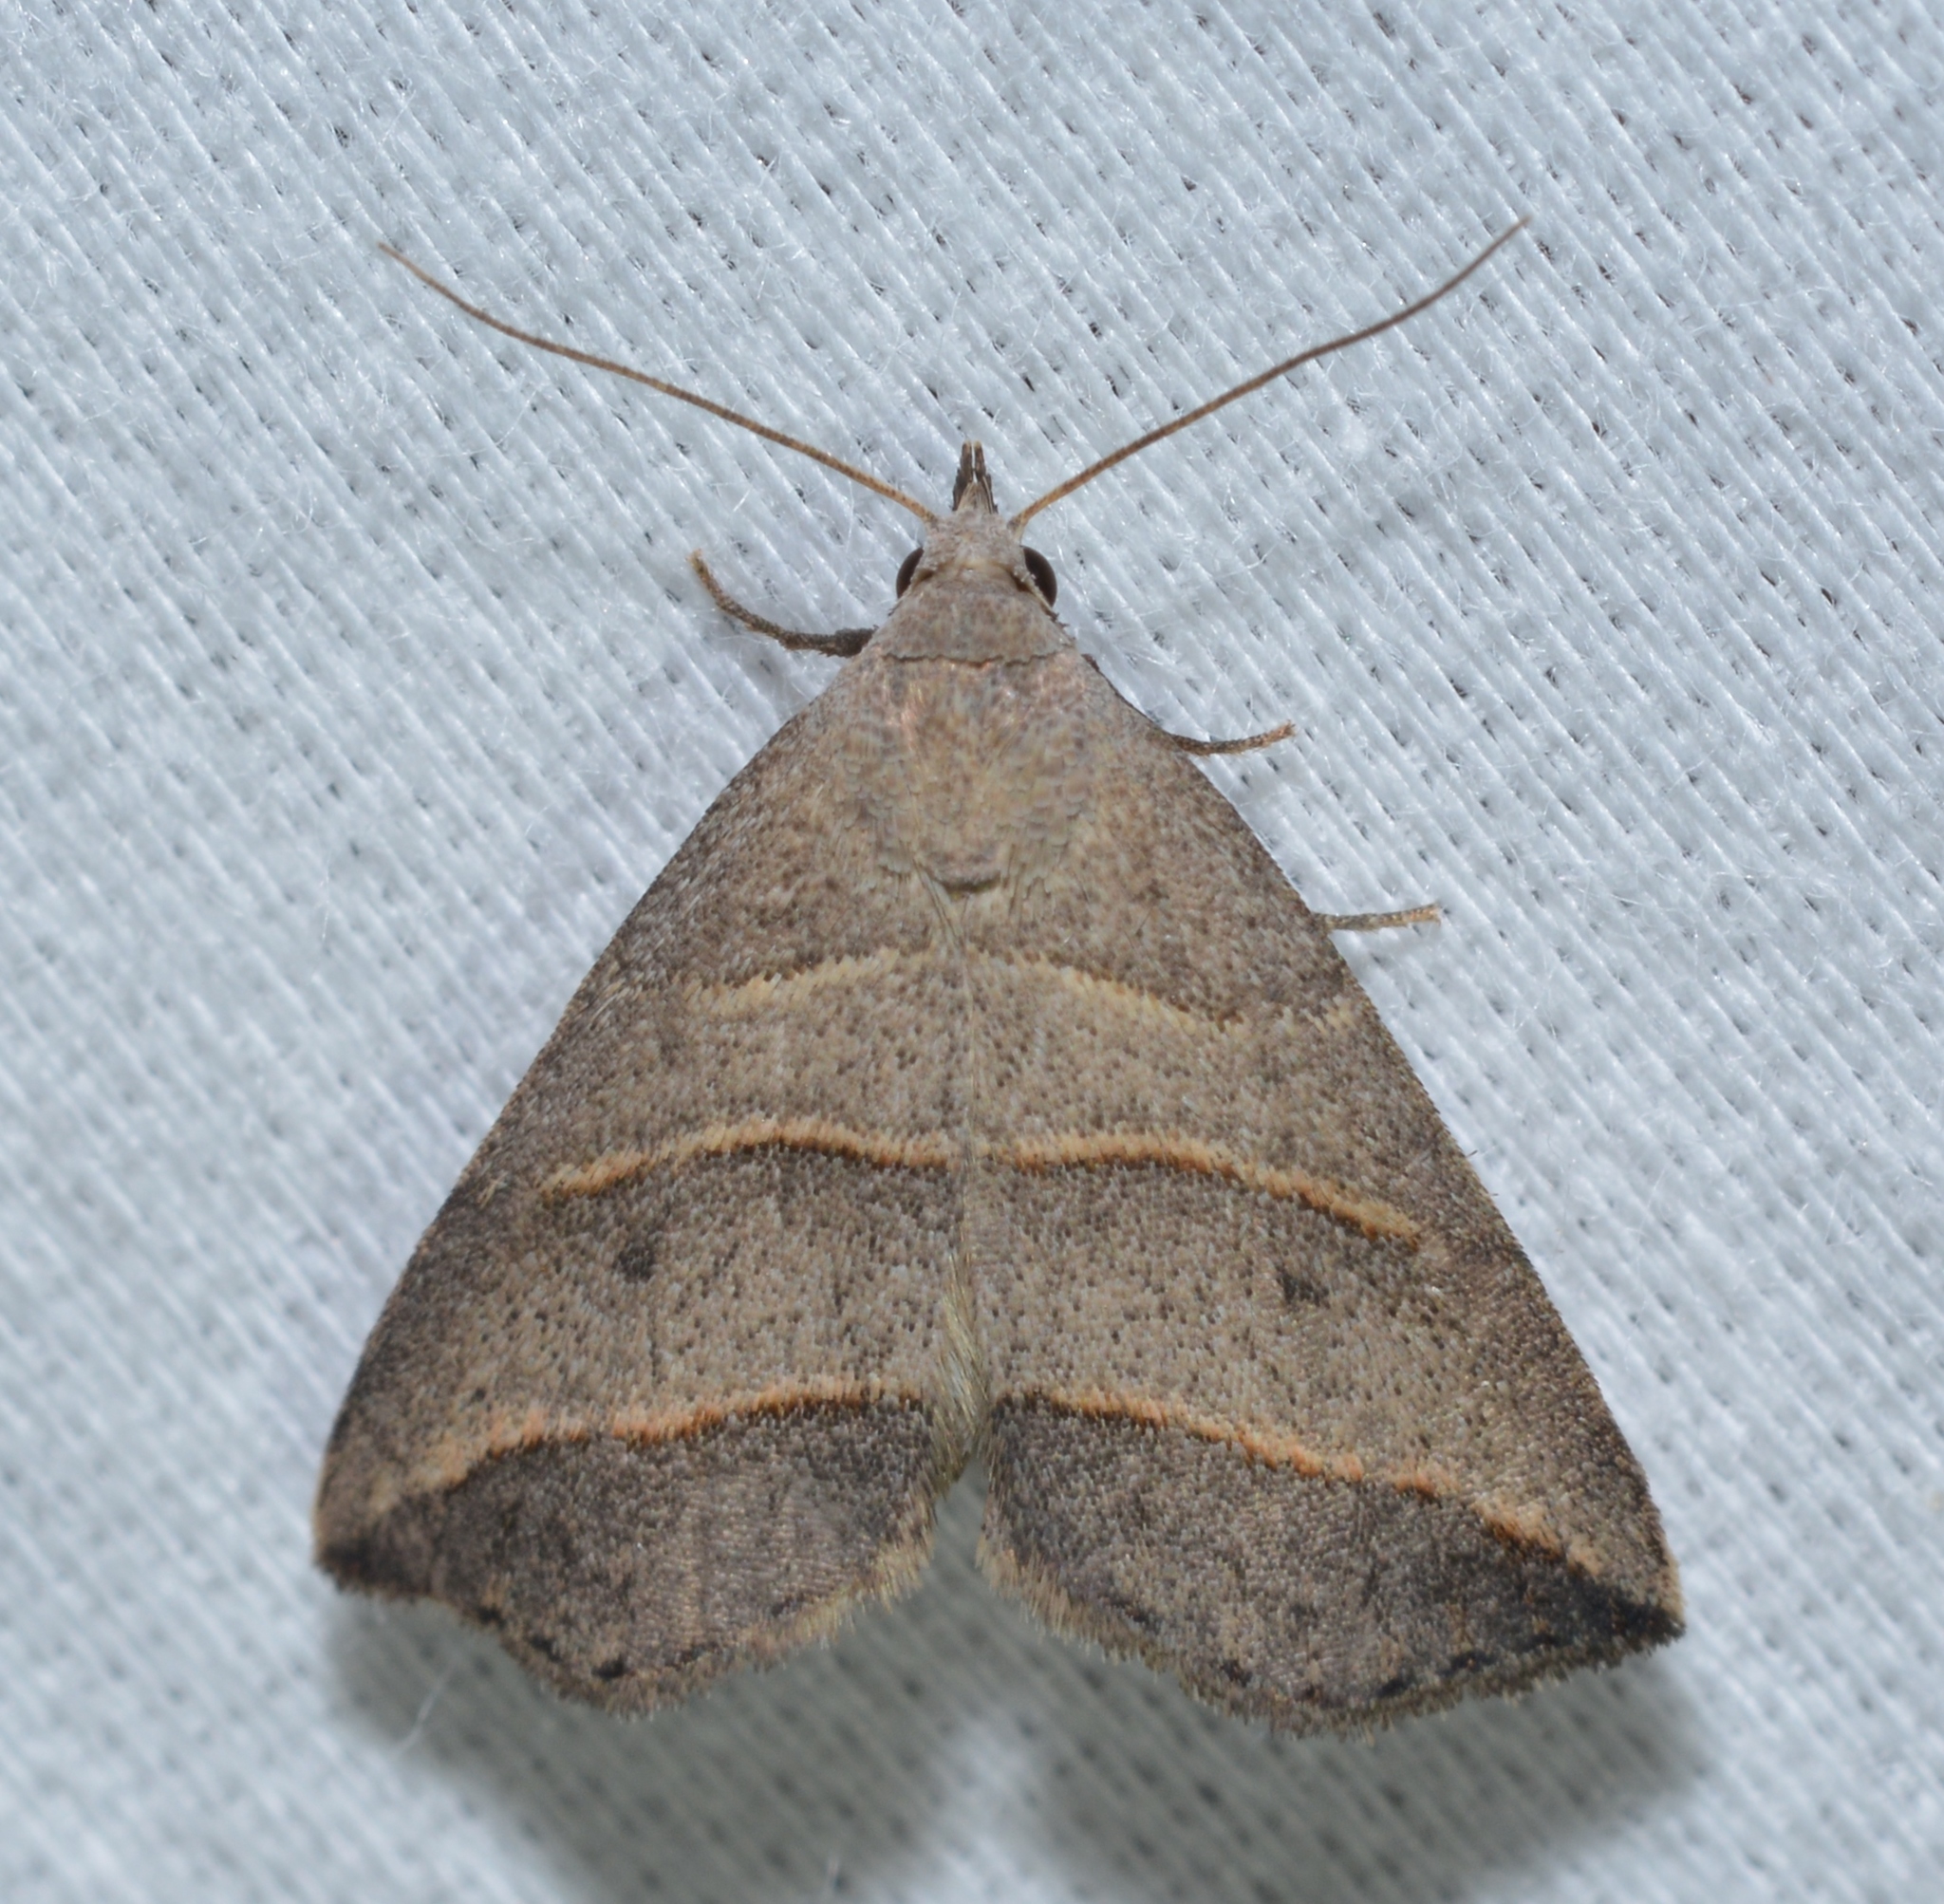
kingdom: Animalia
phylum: Arthropoda
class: Insecta
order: Lepidoptera
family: Erebidae
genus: Colobochyla
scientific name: Colobochyla interpuncta
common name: Yellow-lined owlet
